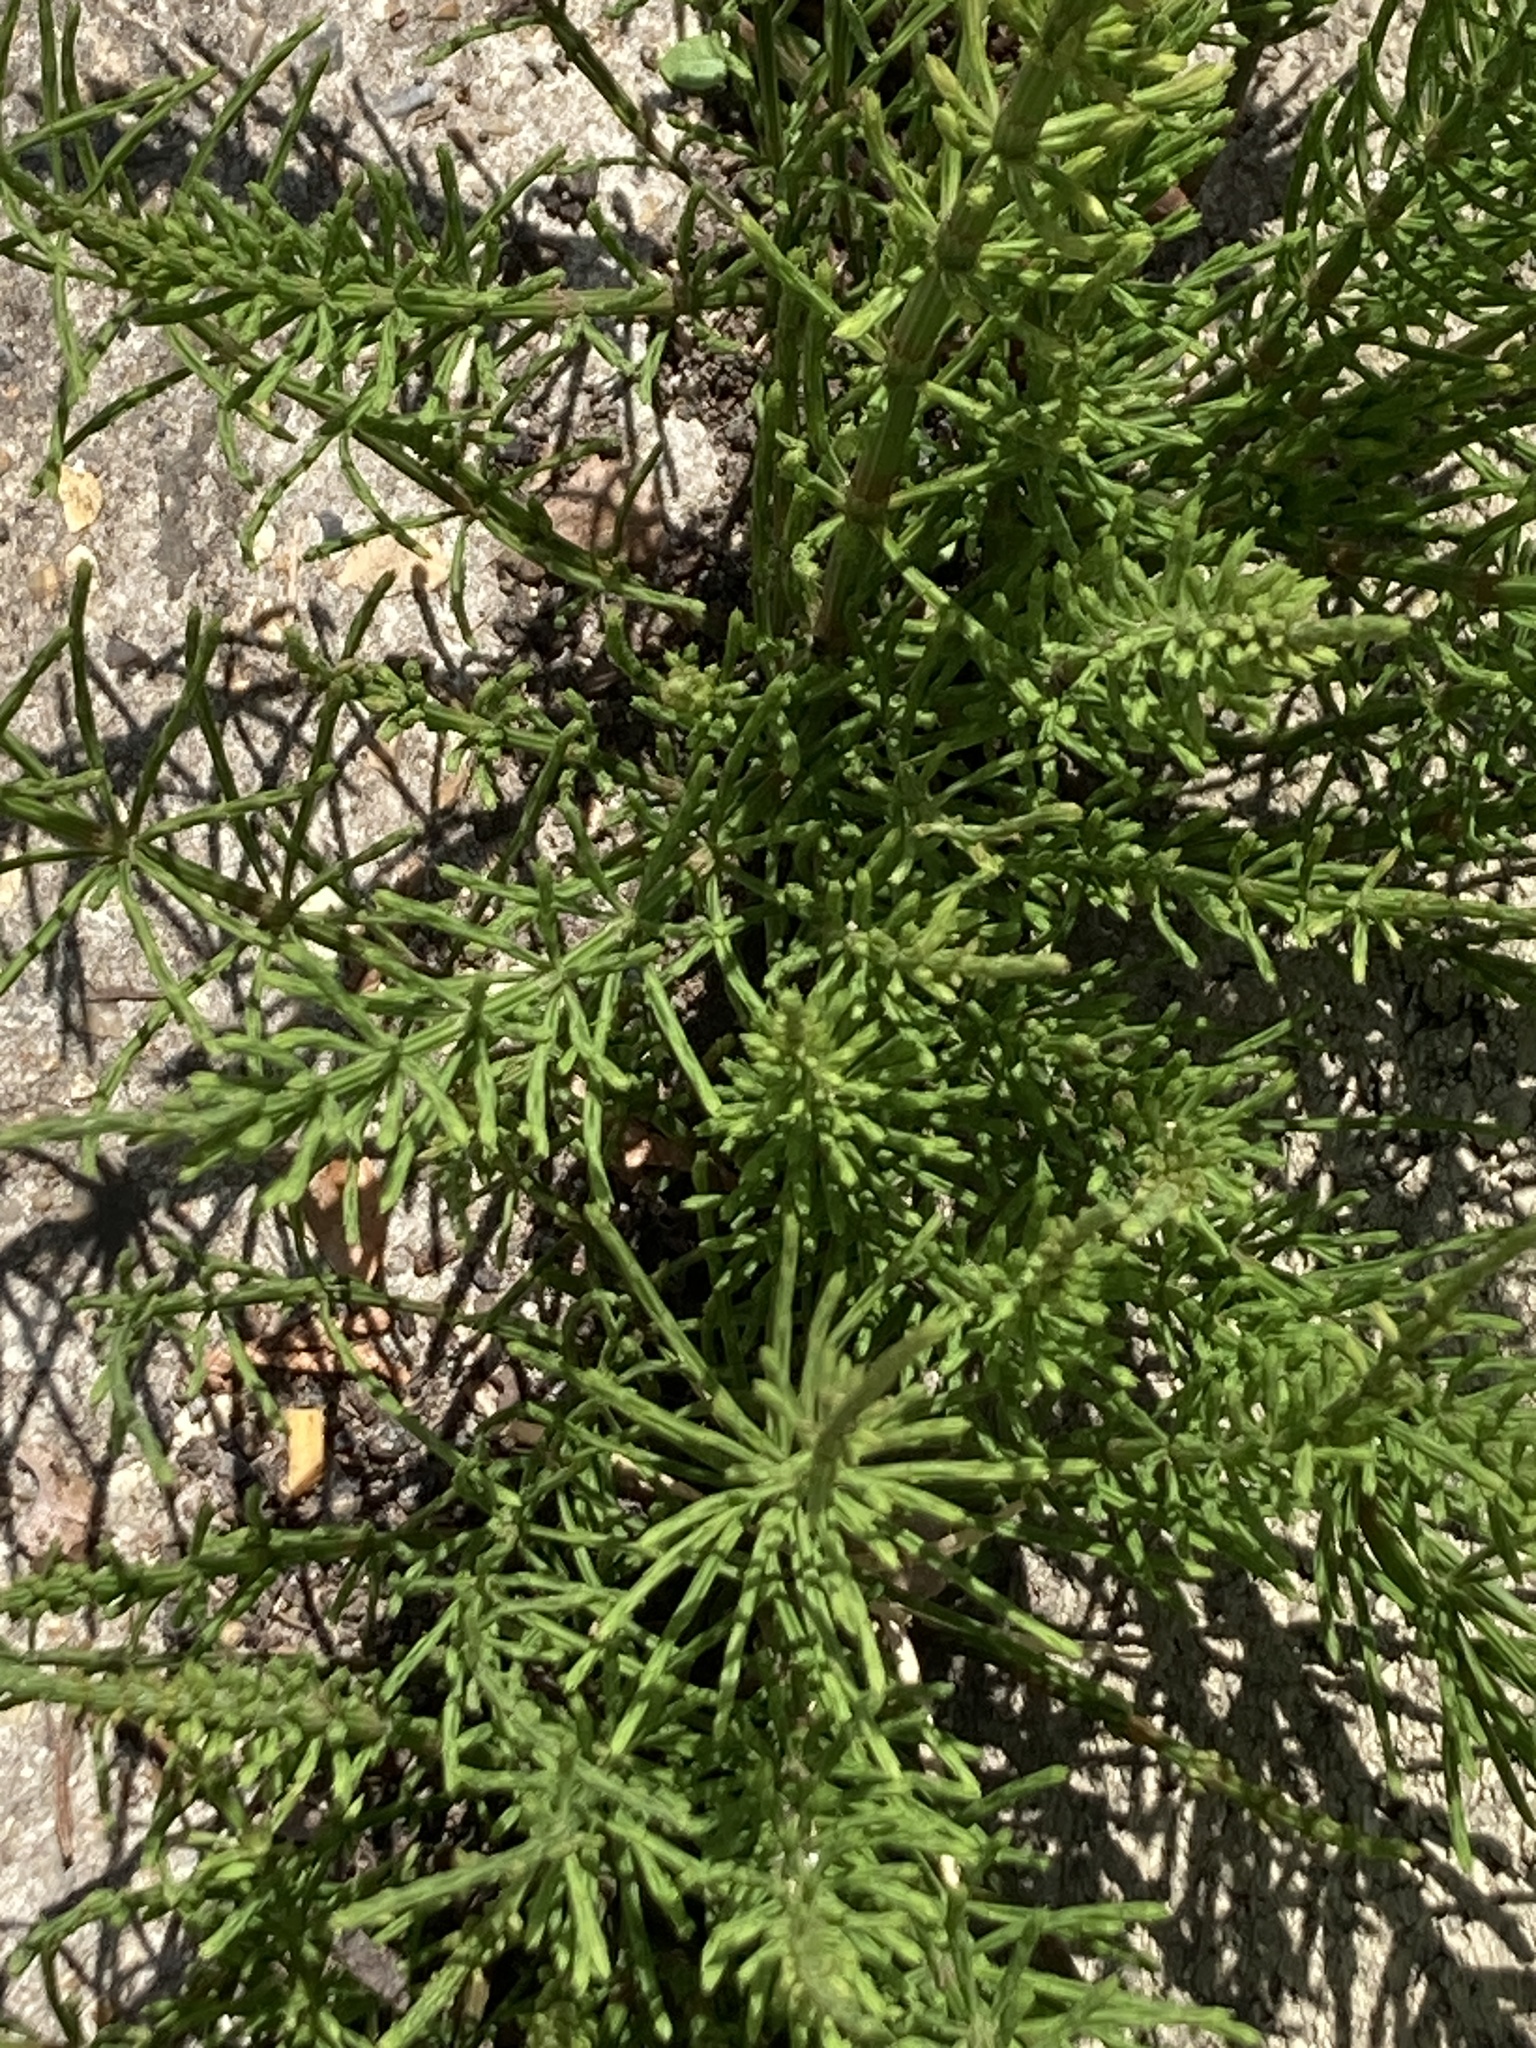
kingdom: Plantae
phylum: Tracheophyta
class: Polypodiopsida
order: Equisetales
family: Equisetaceae
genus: Equisetum
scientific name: Equisetum arvense
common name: Field horsetail
